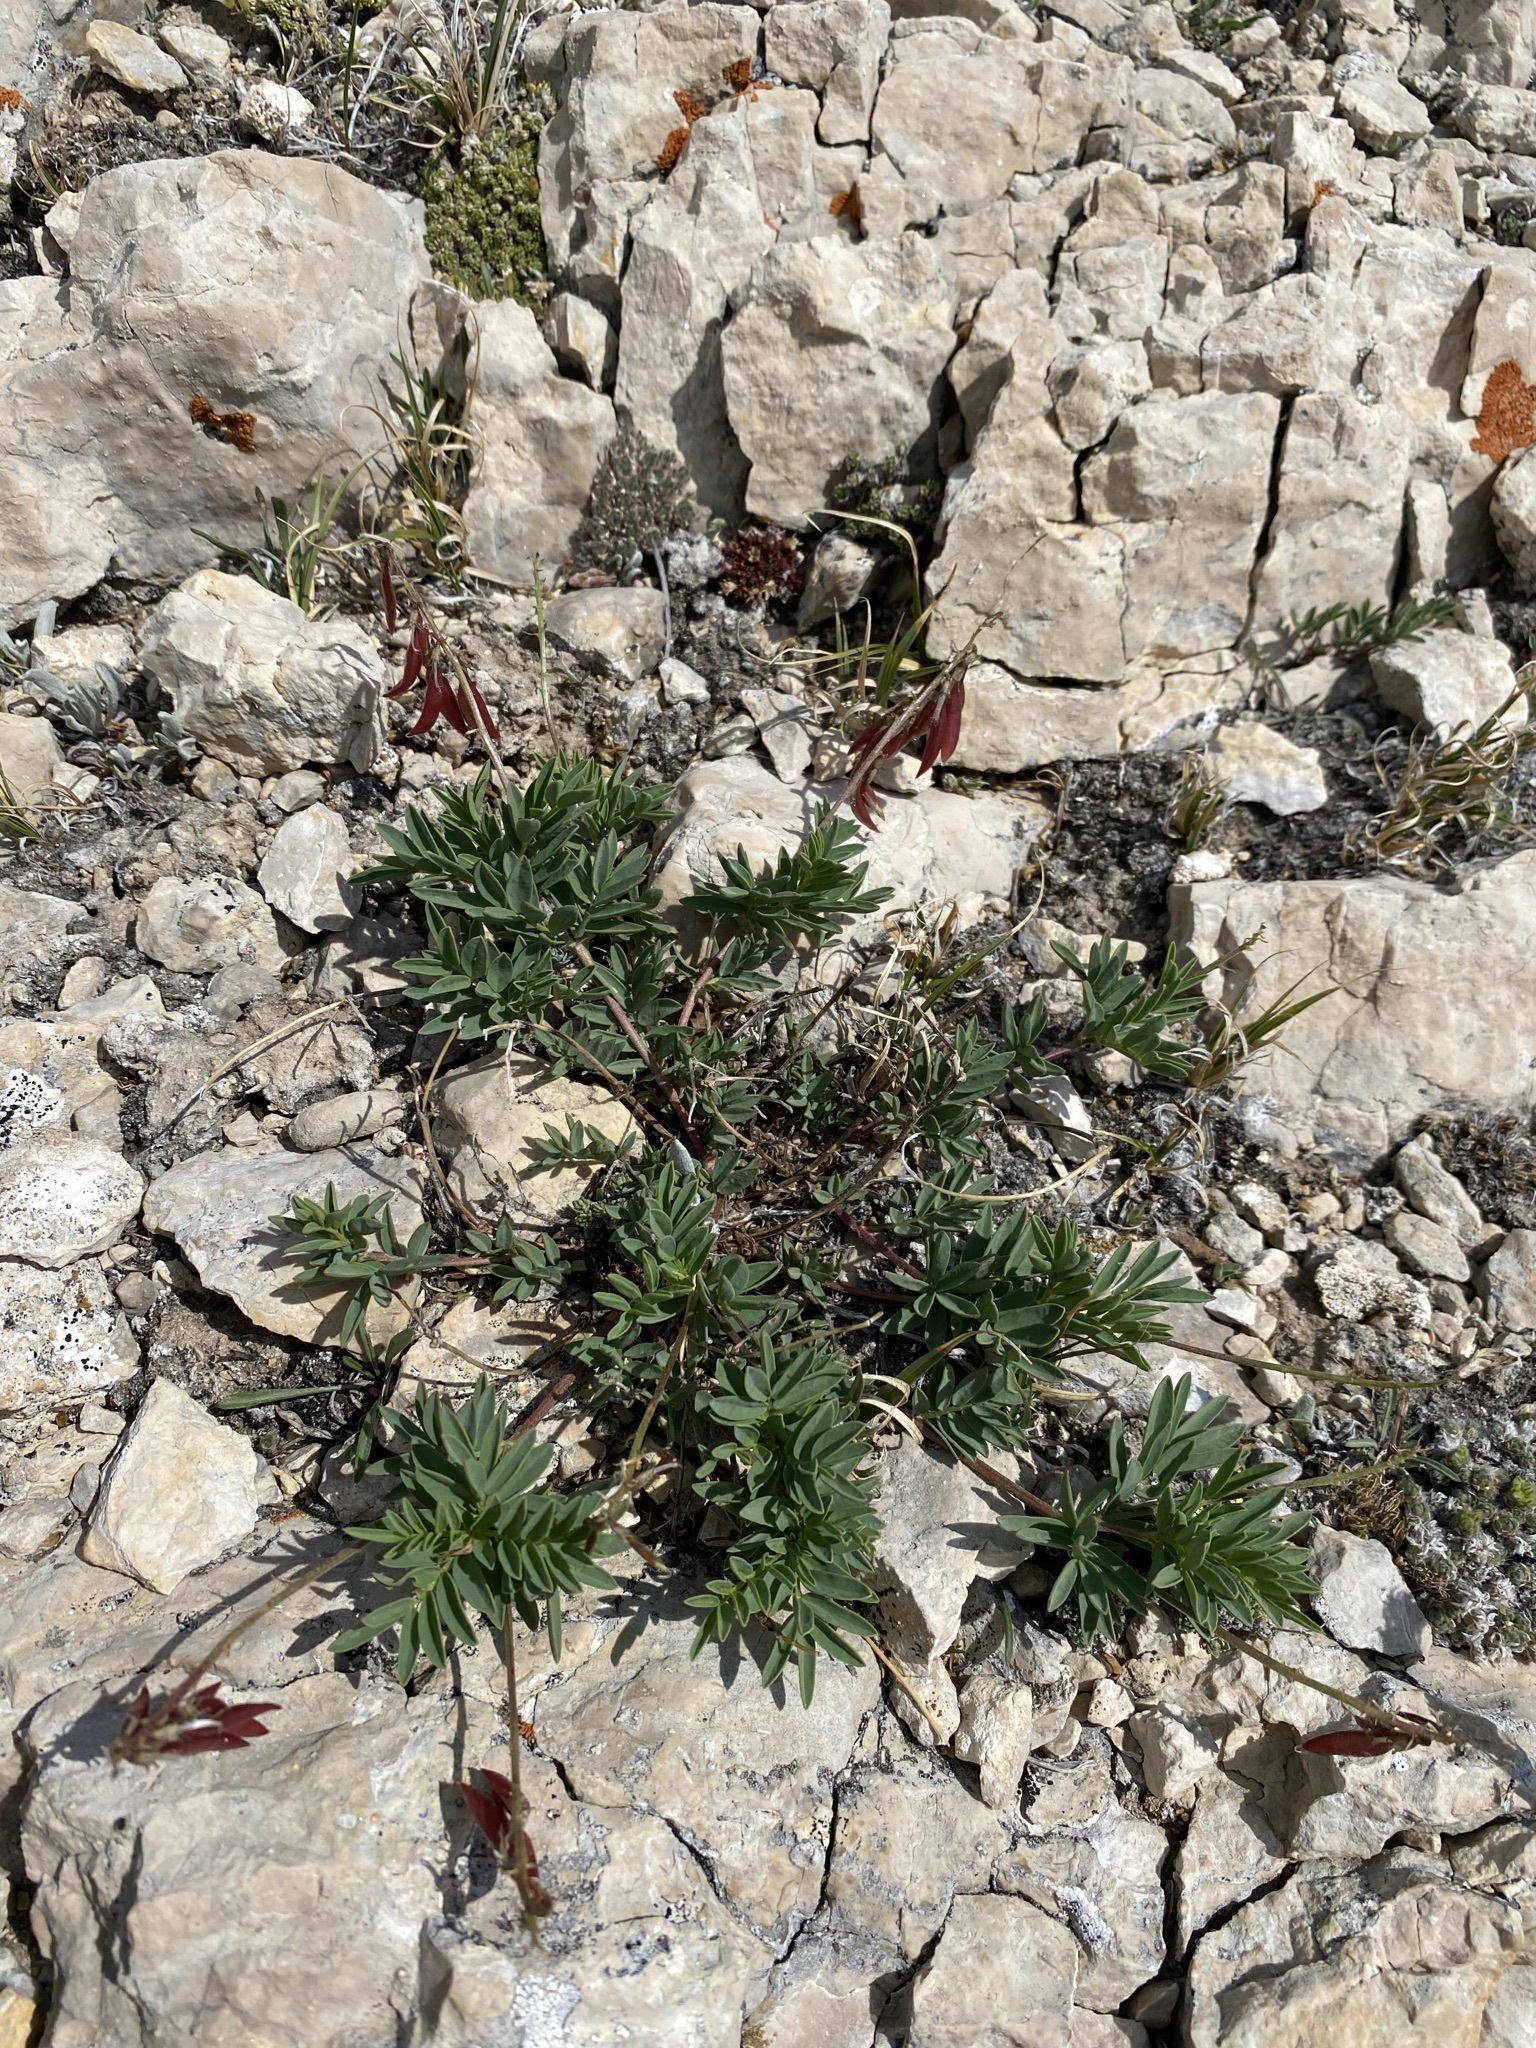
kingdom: Plantae
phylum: Tracheophyta
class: Magnoliopsida
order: Fabales
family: Fabaceae
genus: Astragalus
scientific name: Astragalus australis
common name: Indian milk-vetch
